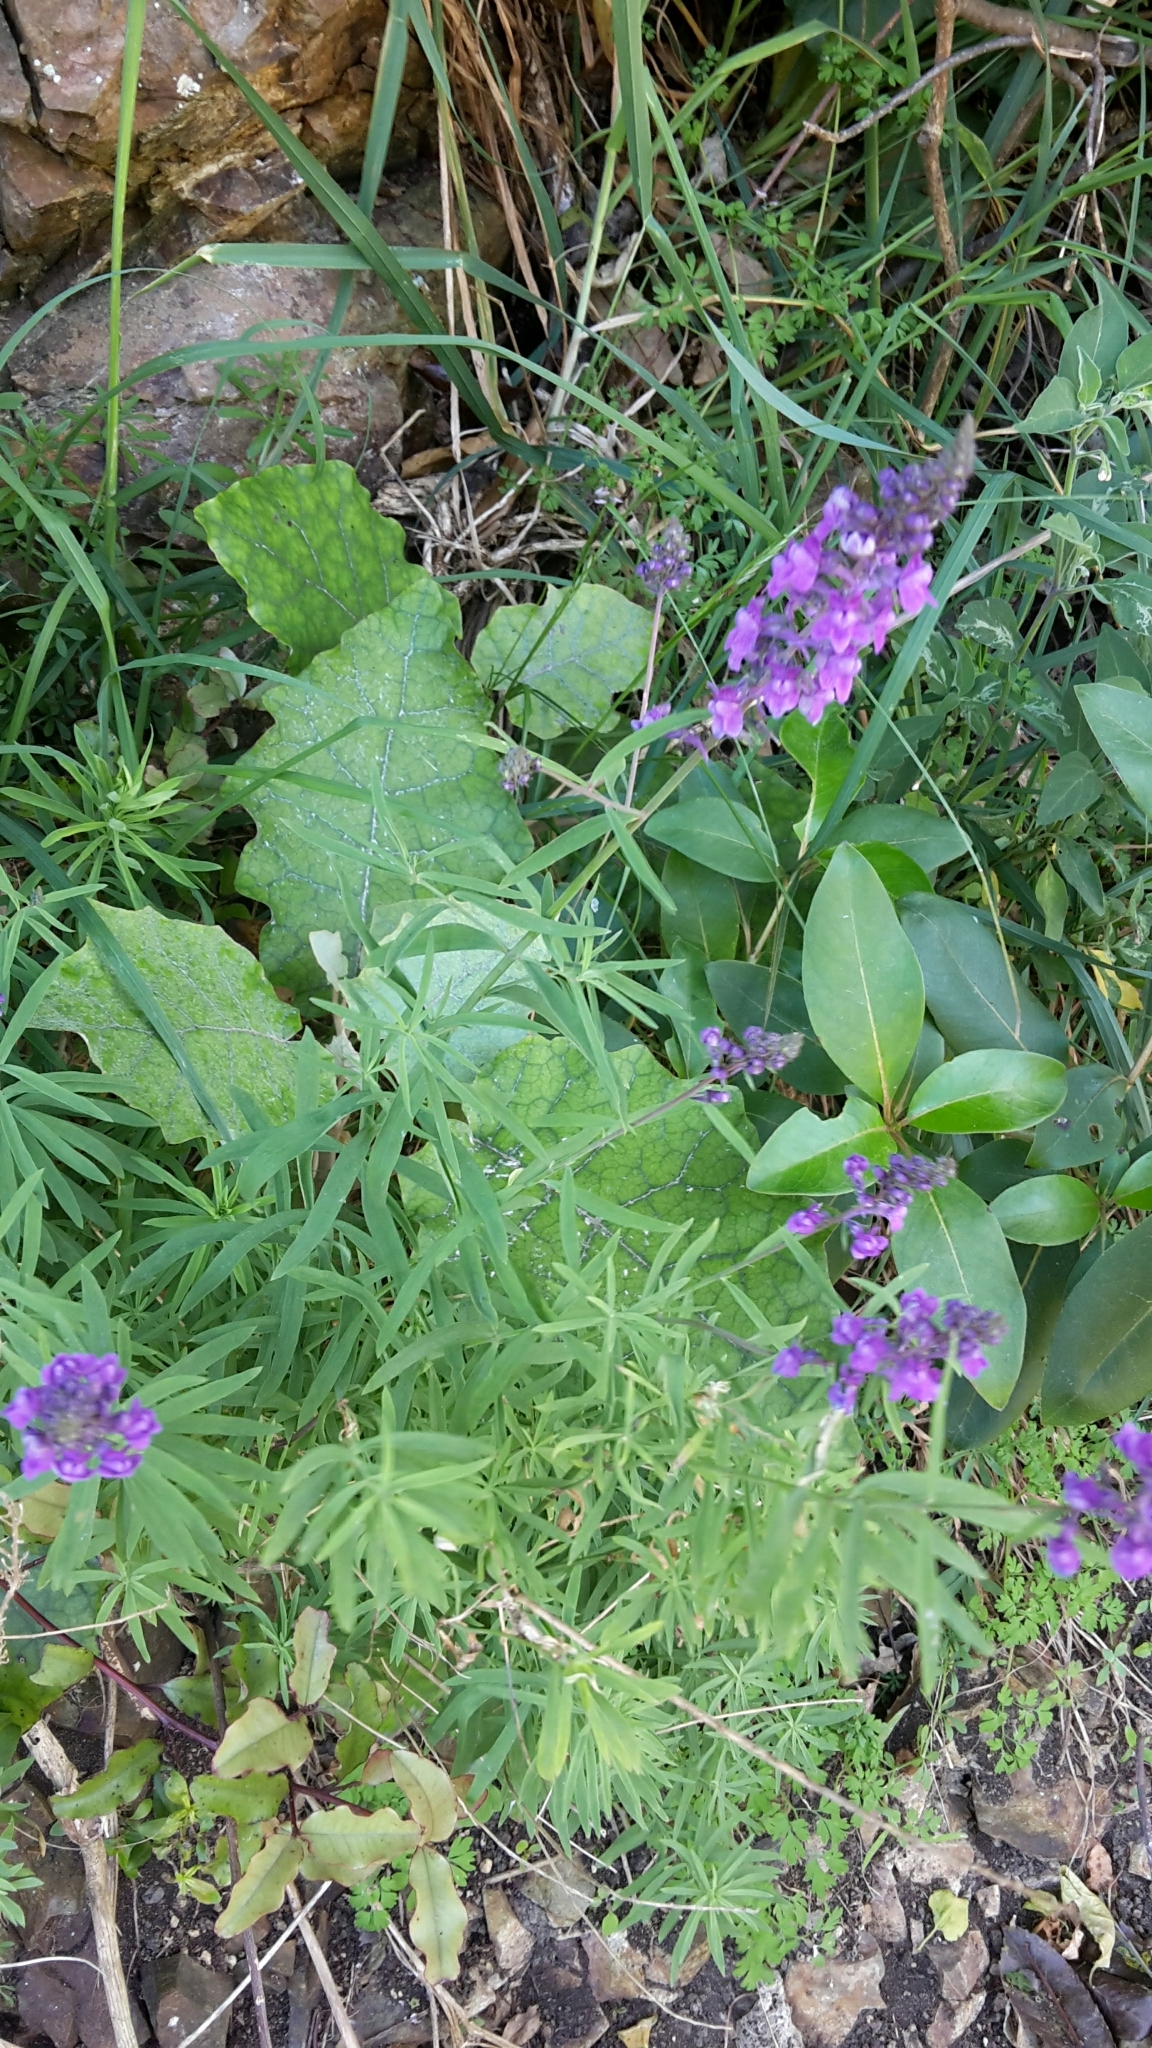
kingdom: Plantae
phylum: Tracheophyta
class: Magnoliopsida
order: Lamiales
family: Plantaginaceae
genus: Linaria
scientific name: Linaria purpurea
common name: Purple toadflax
